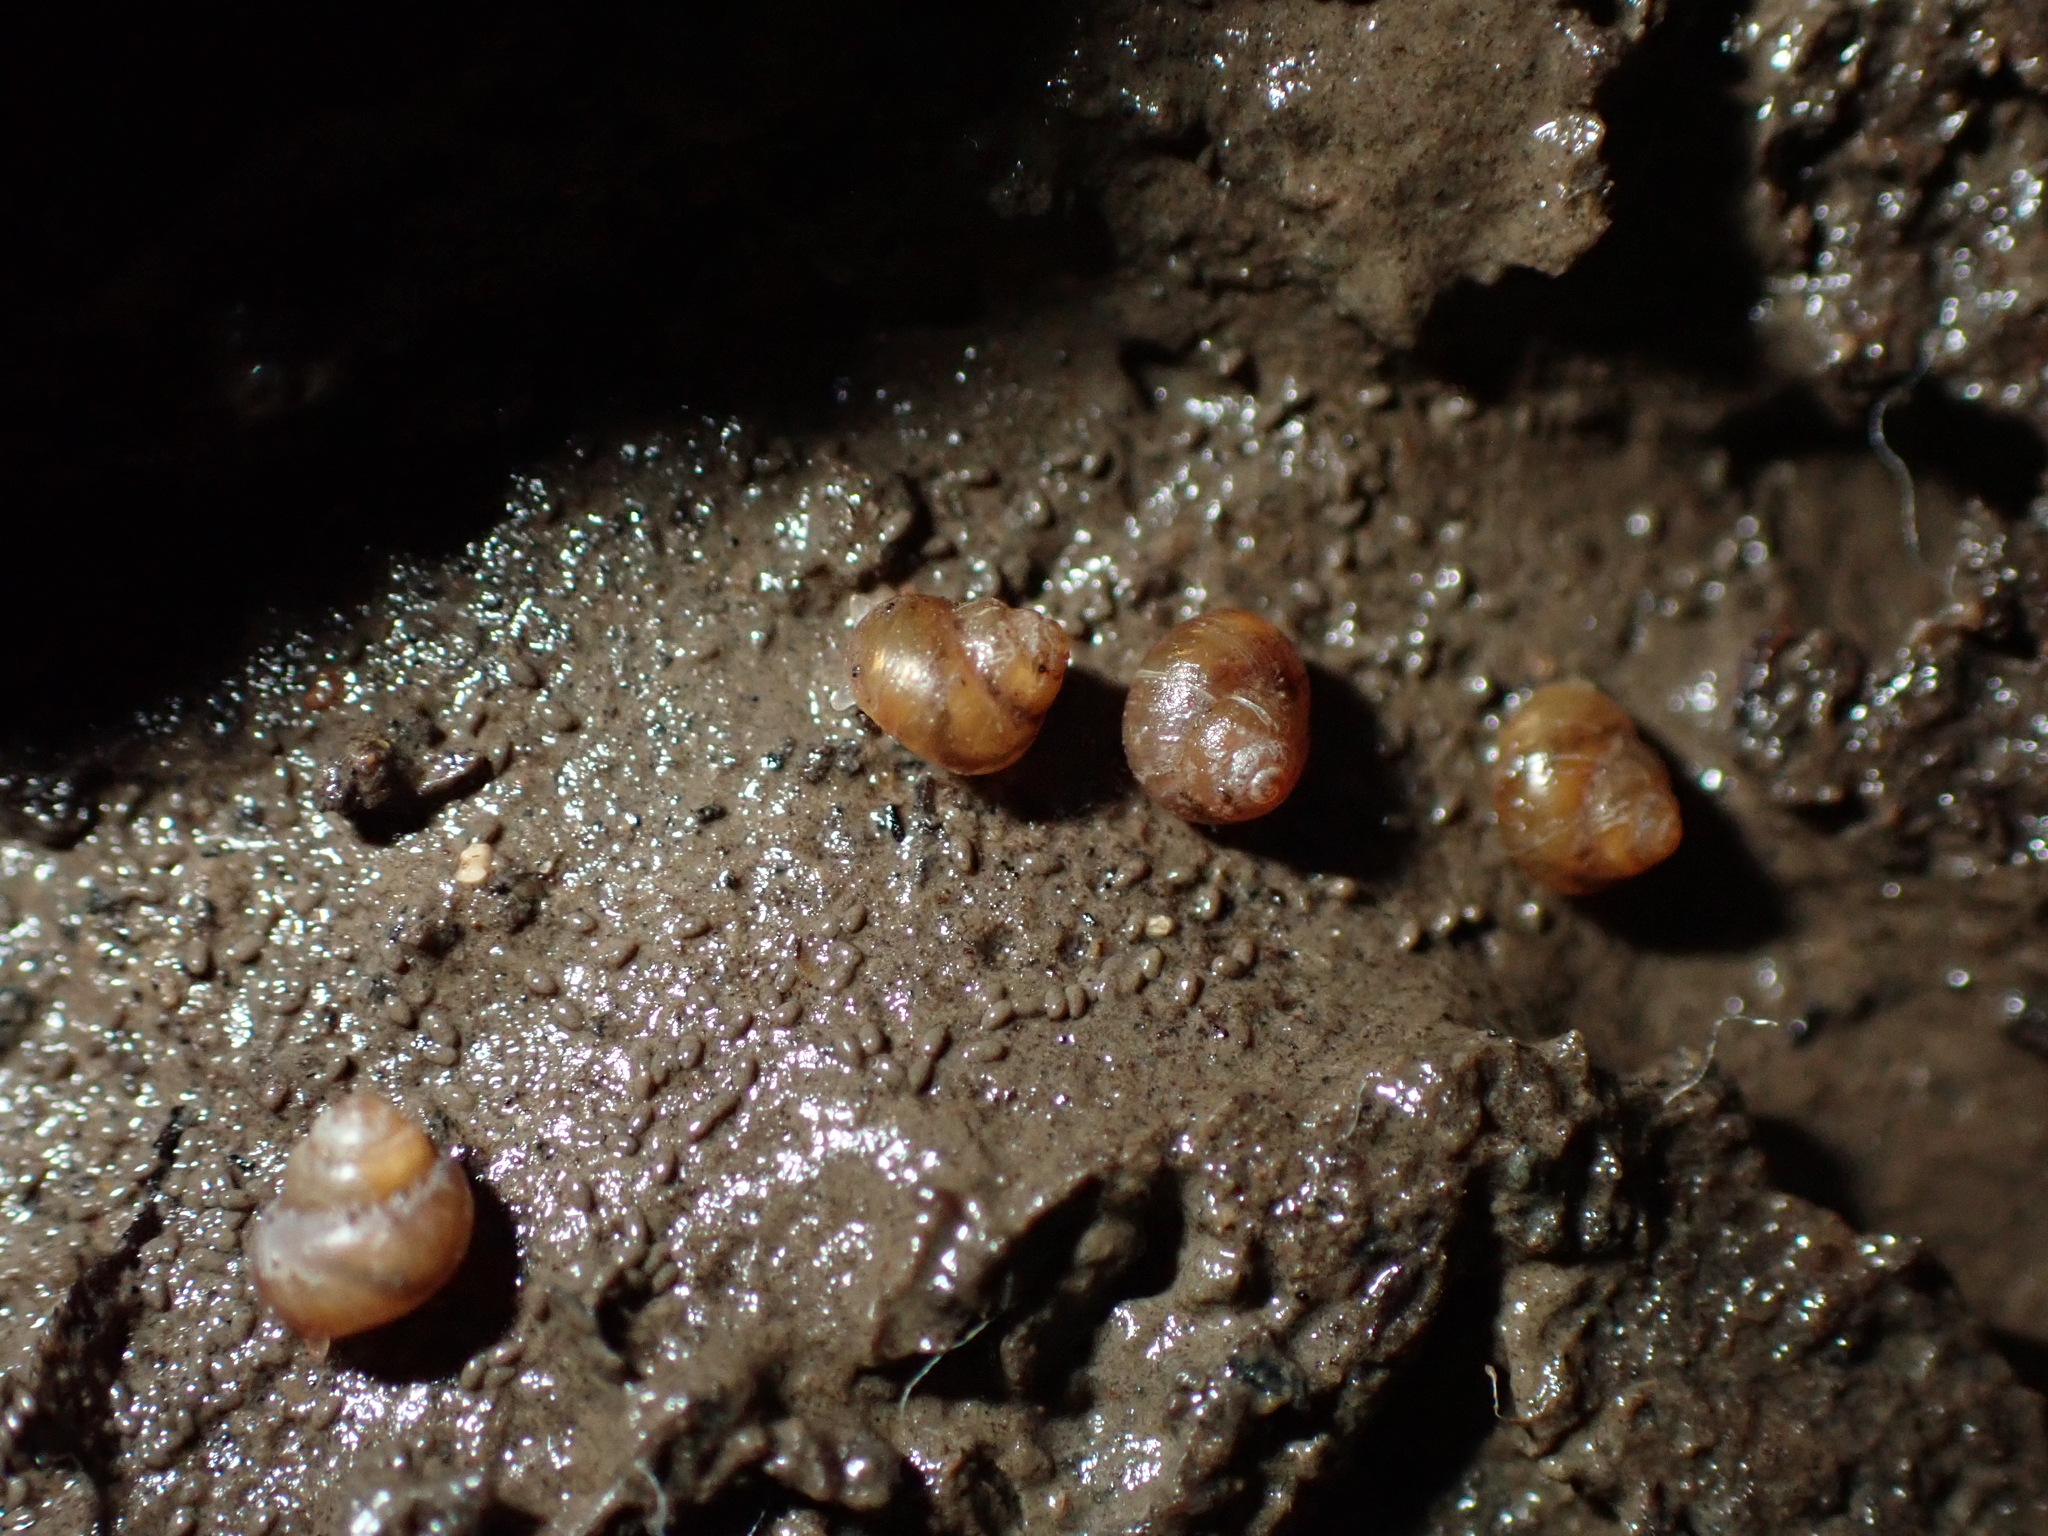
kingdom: Animalia
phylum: Mollusca
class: Gastropoda
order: Littorinimorpha
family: Assimineidae
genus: Suterilla
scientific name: Suterilla neozelanica
